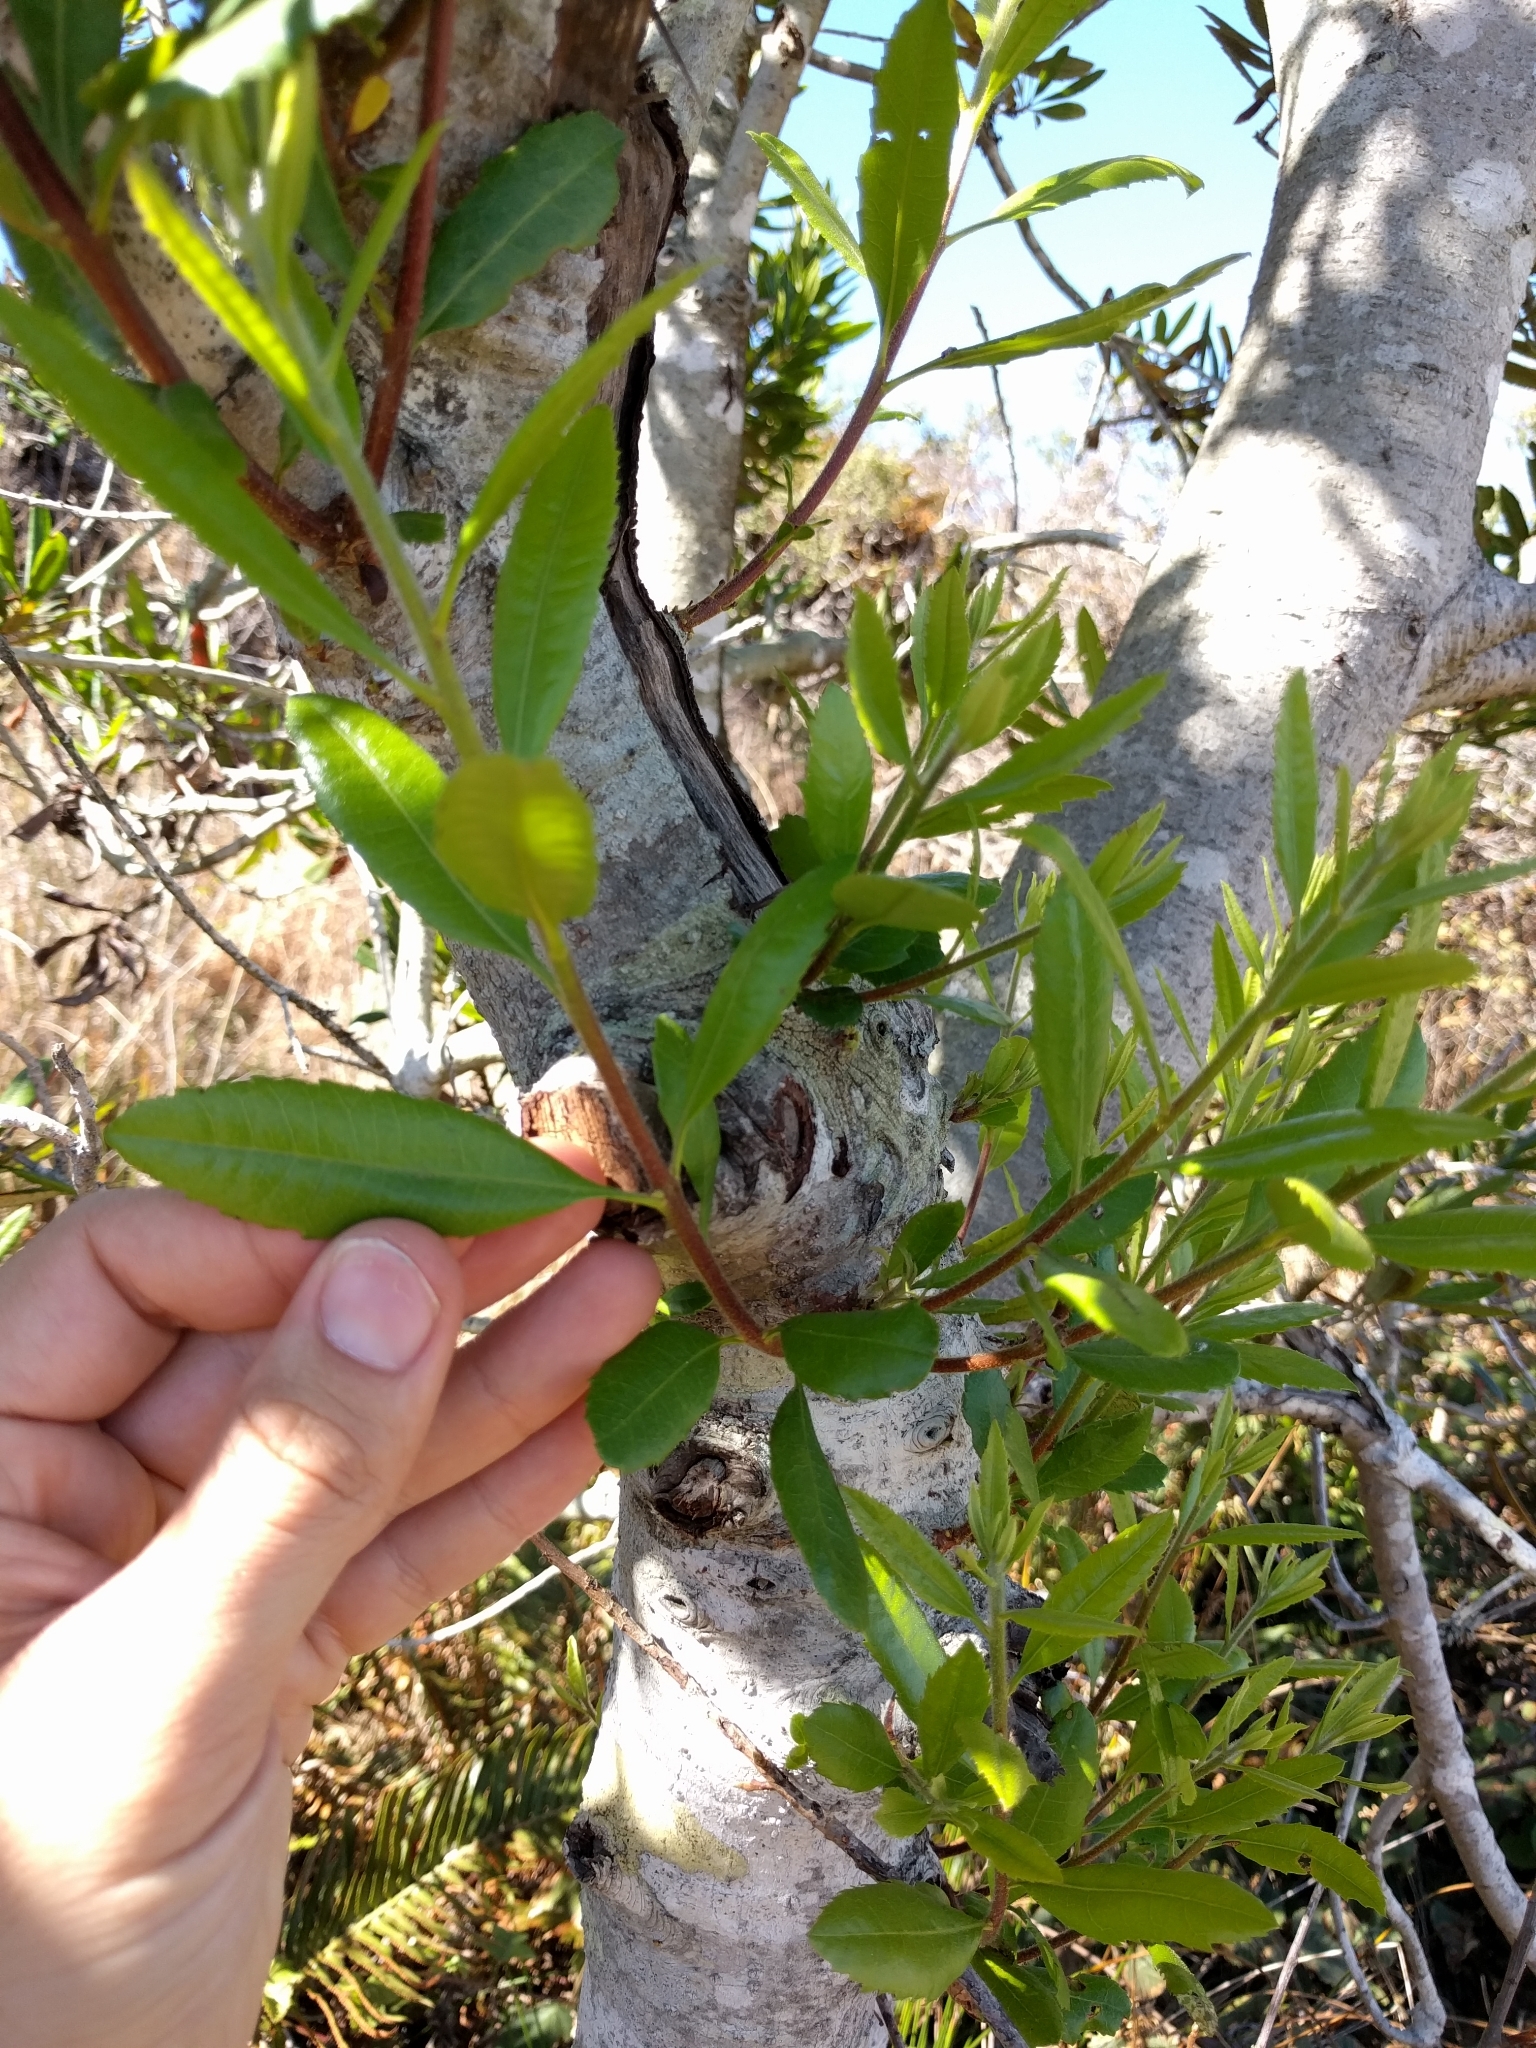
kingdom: Plantae
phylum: Tracheophyta
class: Magnoliopsida
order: Fagales
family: Myricaceae
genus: Morella
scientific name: Morella californica
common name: California wax-myrtle
